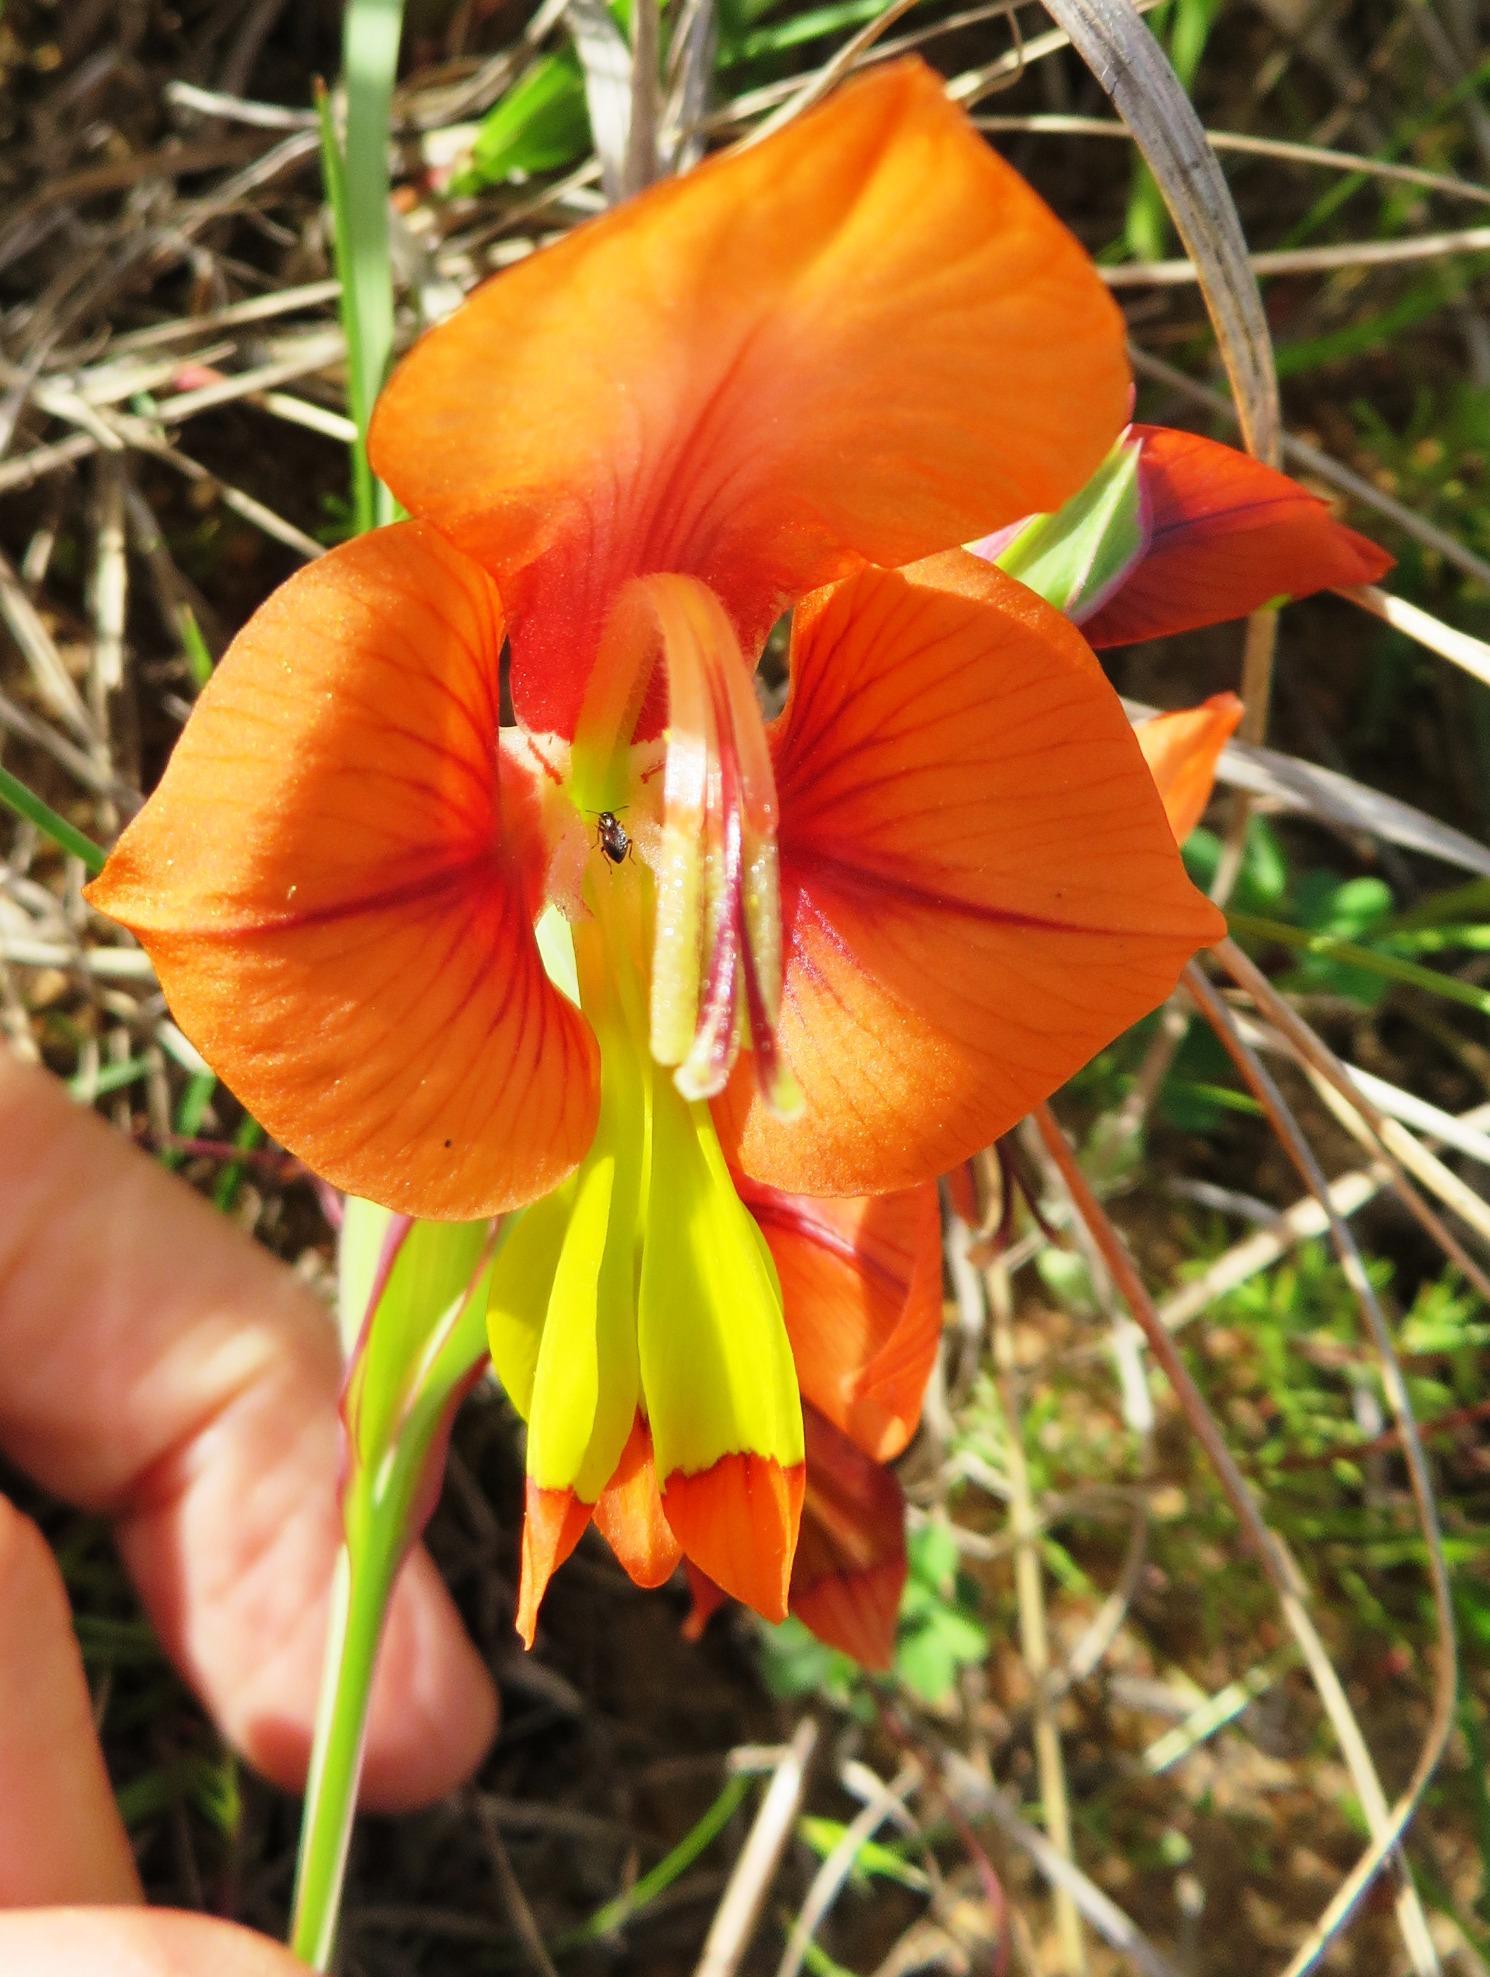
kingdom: Plantae
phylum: Tracheophyta
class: Liliopsida
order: Asparagales
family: Iridaceae
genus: Gladiolus
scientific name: Gladiolus alatus
